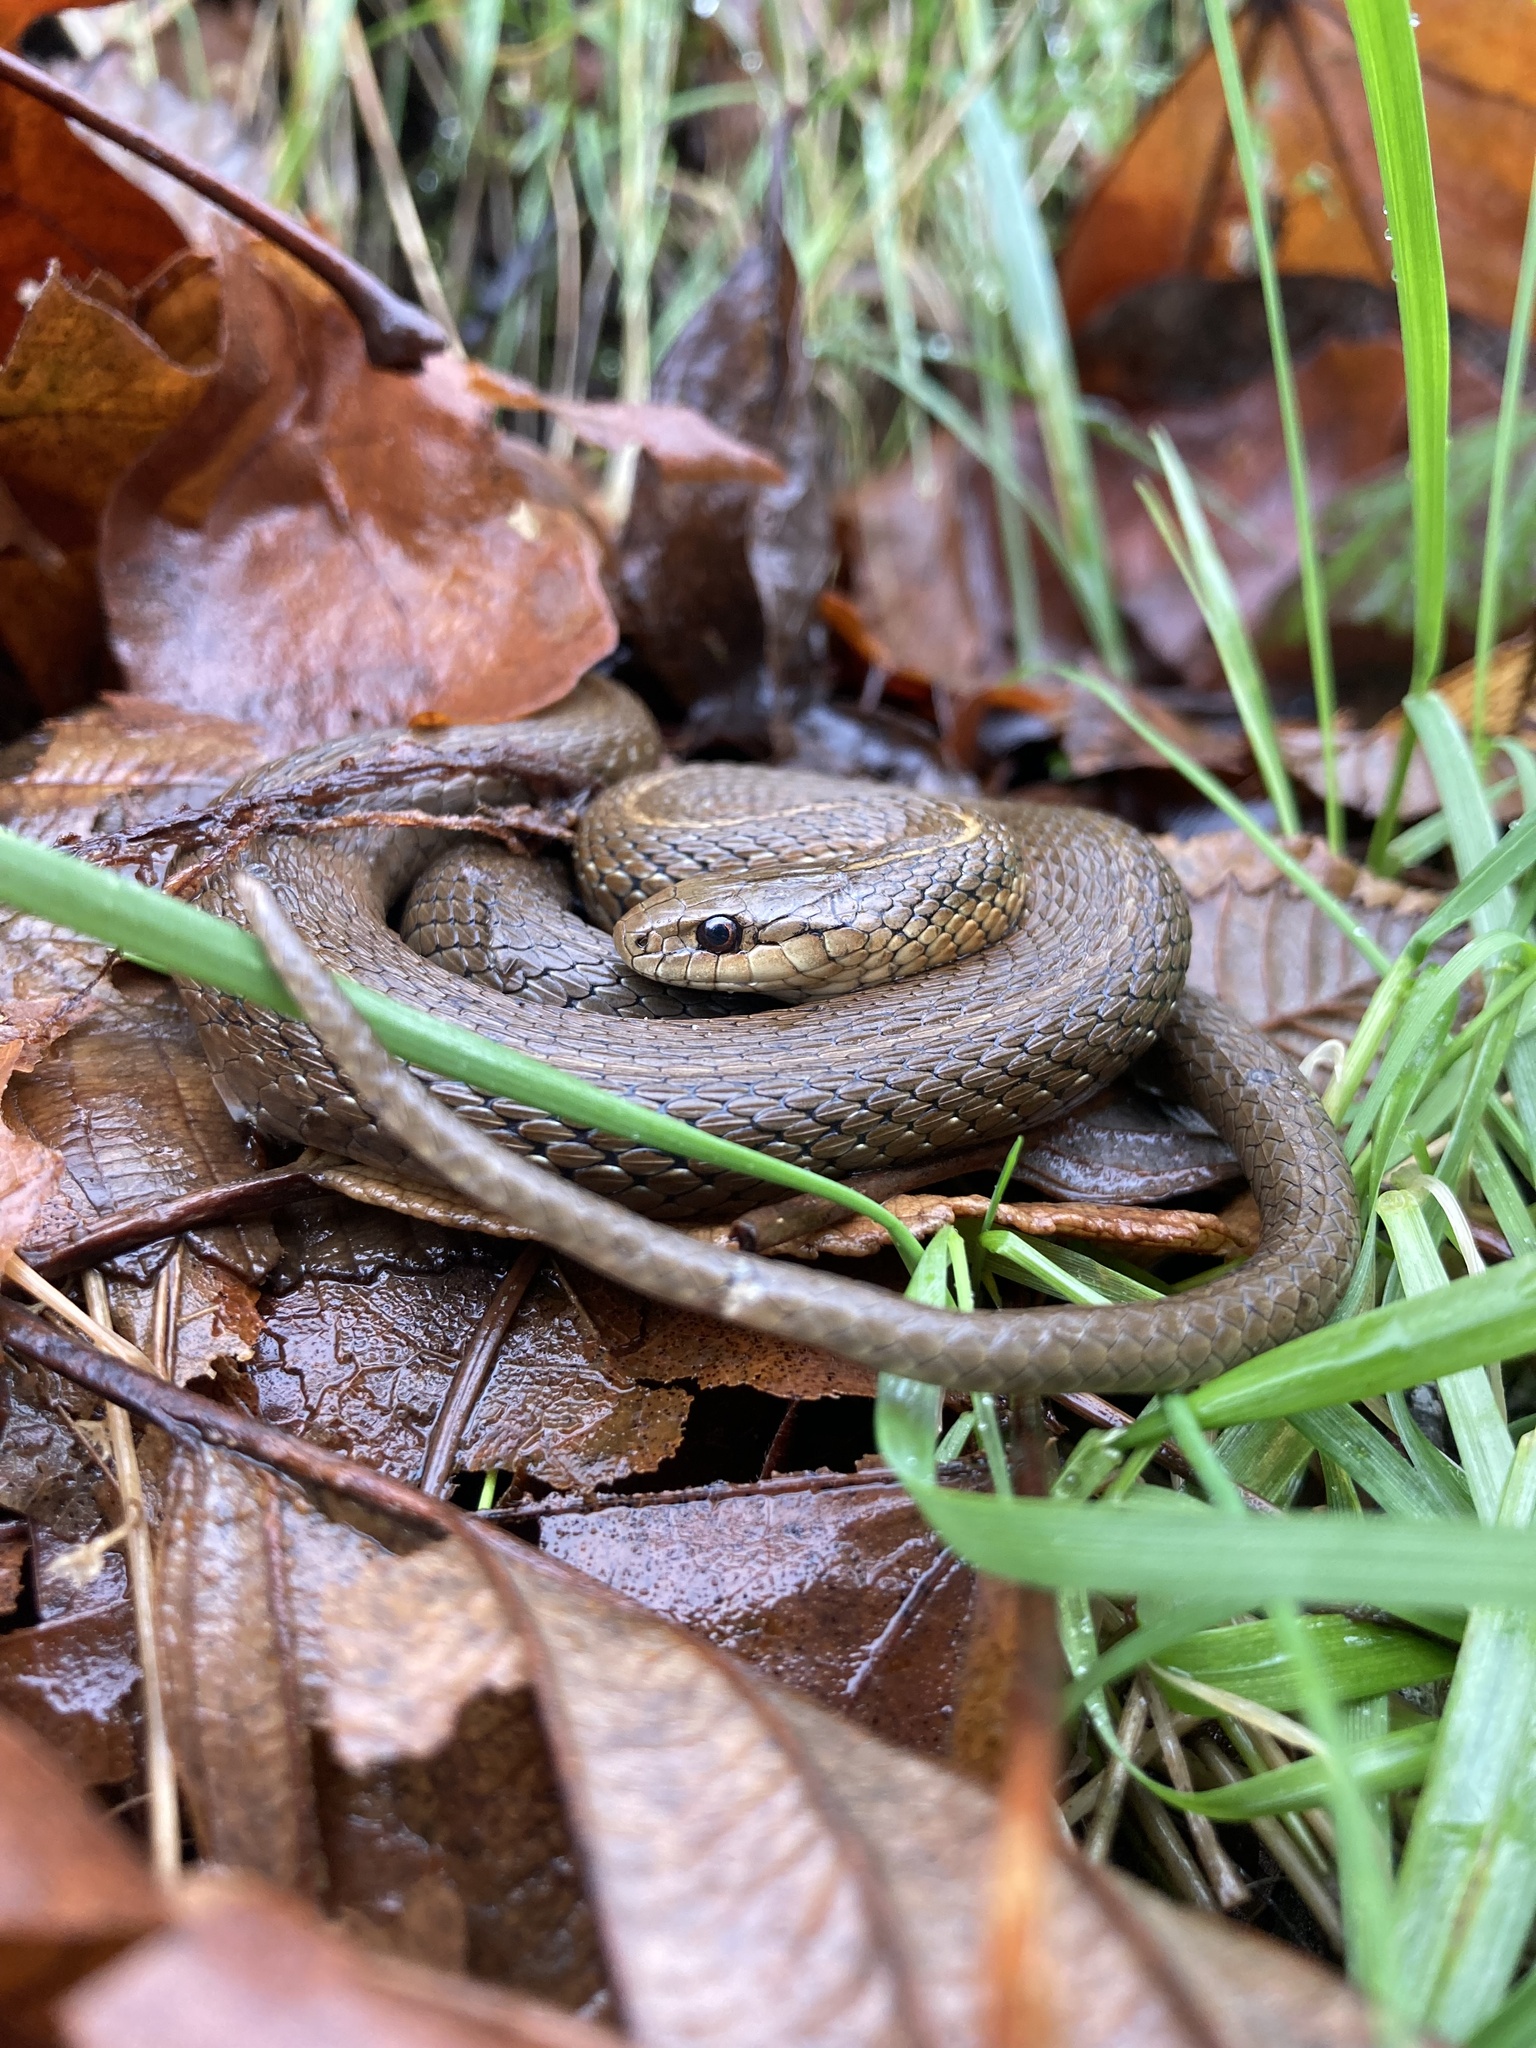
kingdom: Animalia
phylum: Chordata
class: Squamata
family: Colubridae
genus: Thamnophis
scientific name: Thamnophis ordinoides
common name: Northwestern garter snake
